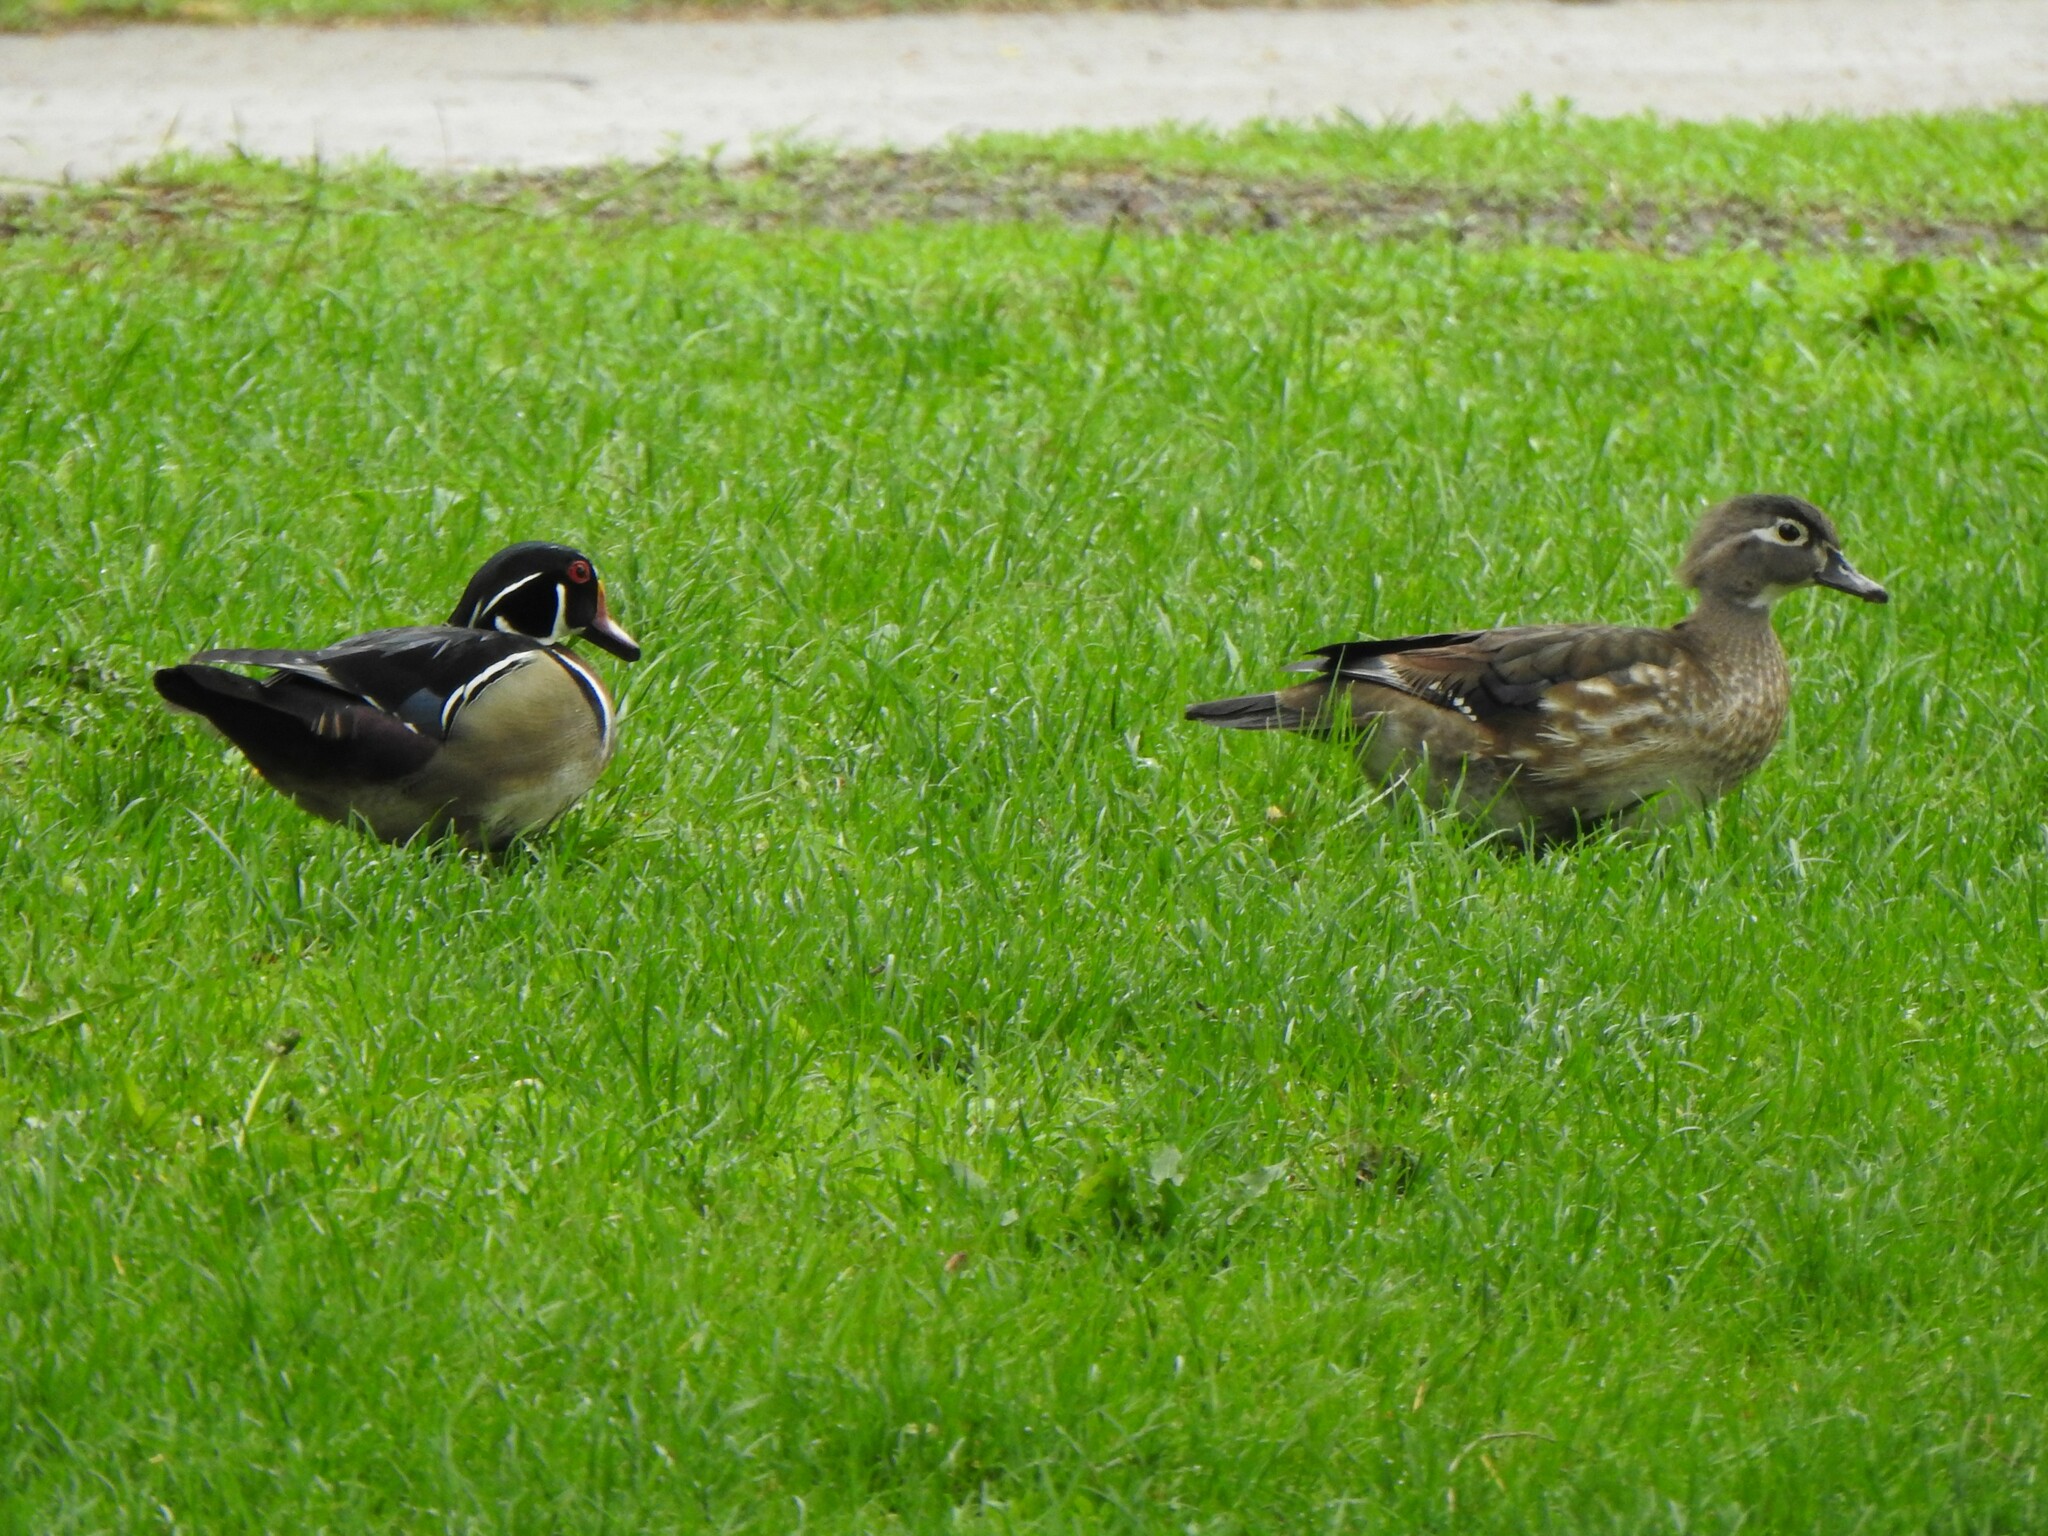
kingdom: Animalia
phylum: Chordata
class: Aves
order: Anseriformes
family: Anatidae
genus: Aix
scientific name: Aix sponsa
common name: Wood duck
